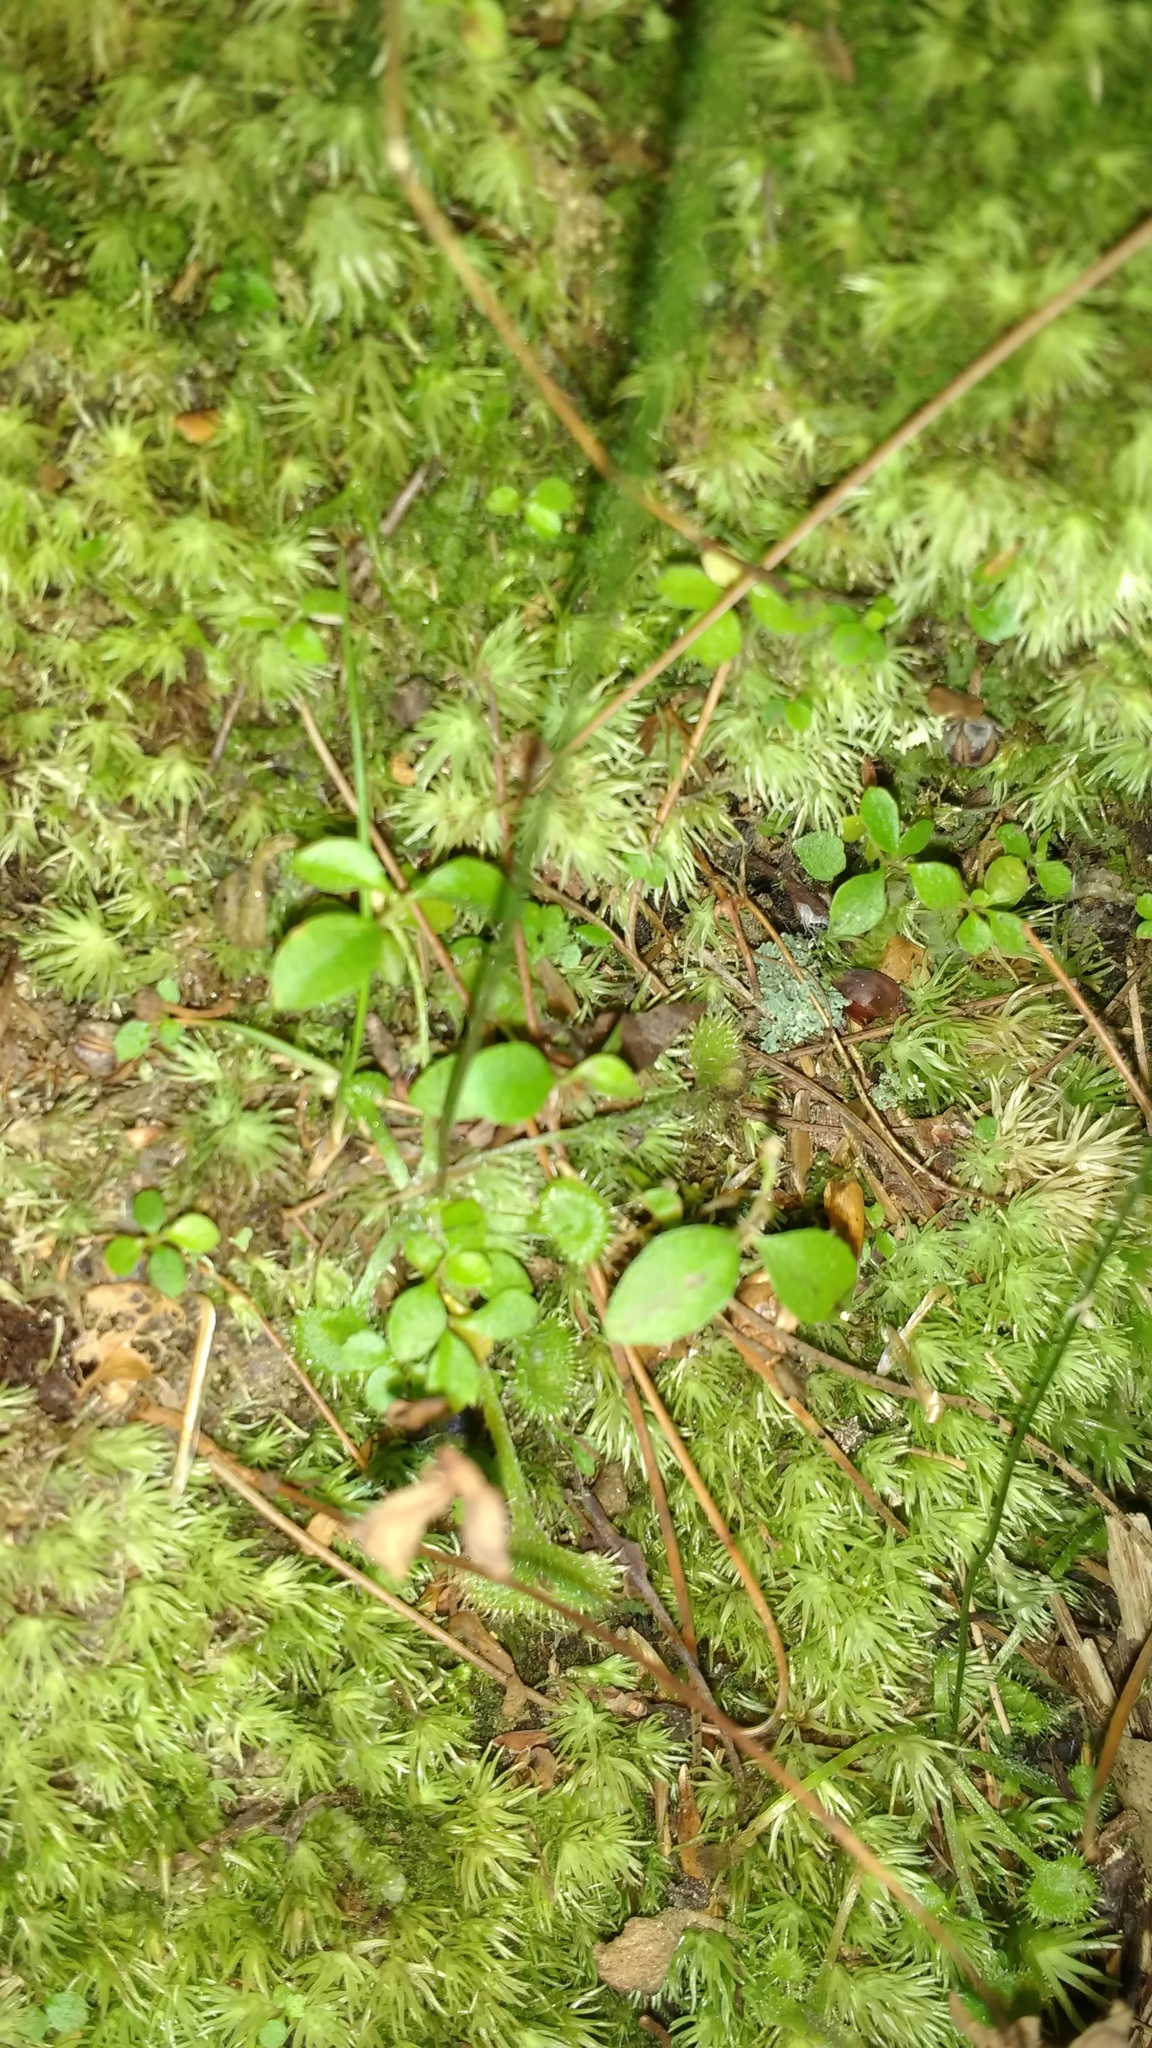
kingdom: Plantae
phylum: Tracheophyta
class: Magnoliopsida
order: Caryophyllales
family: Droseraceae
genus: Drosera
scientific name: Drosera rotundifolia
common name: Round-leaved sundew
